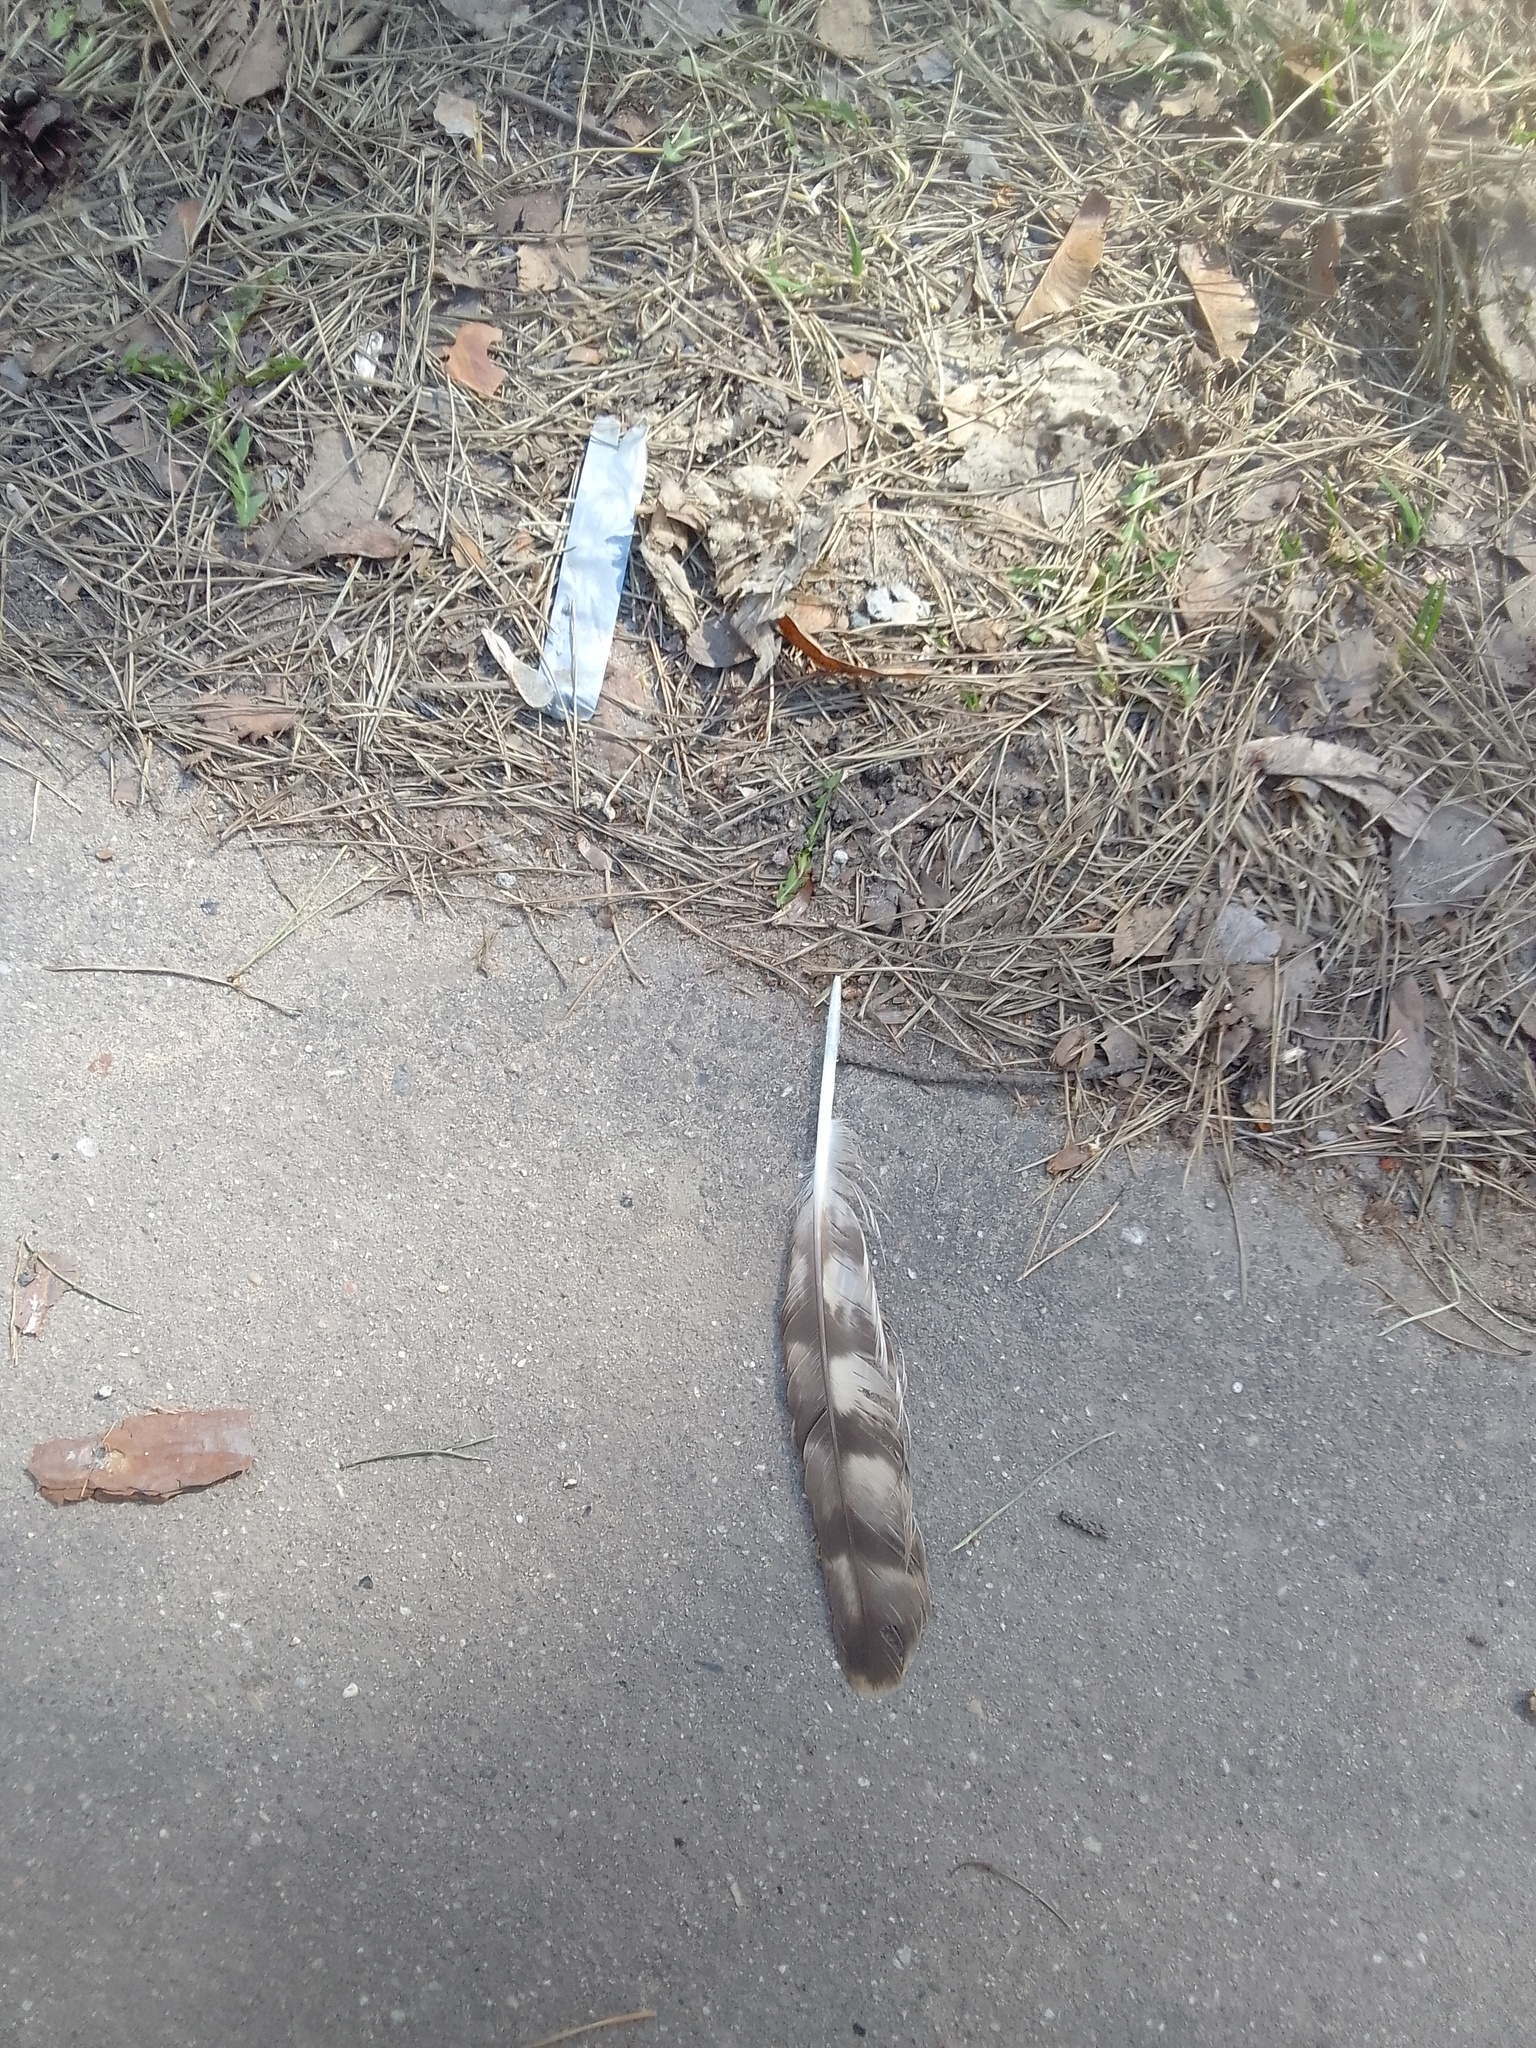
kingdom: Animalia
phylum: Chordata
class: Aves
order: Accipitriformes
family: Accipitridae
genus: Accipiter
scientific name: Accipiter gentilis
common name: Northern goshawk
